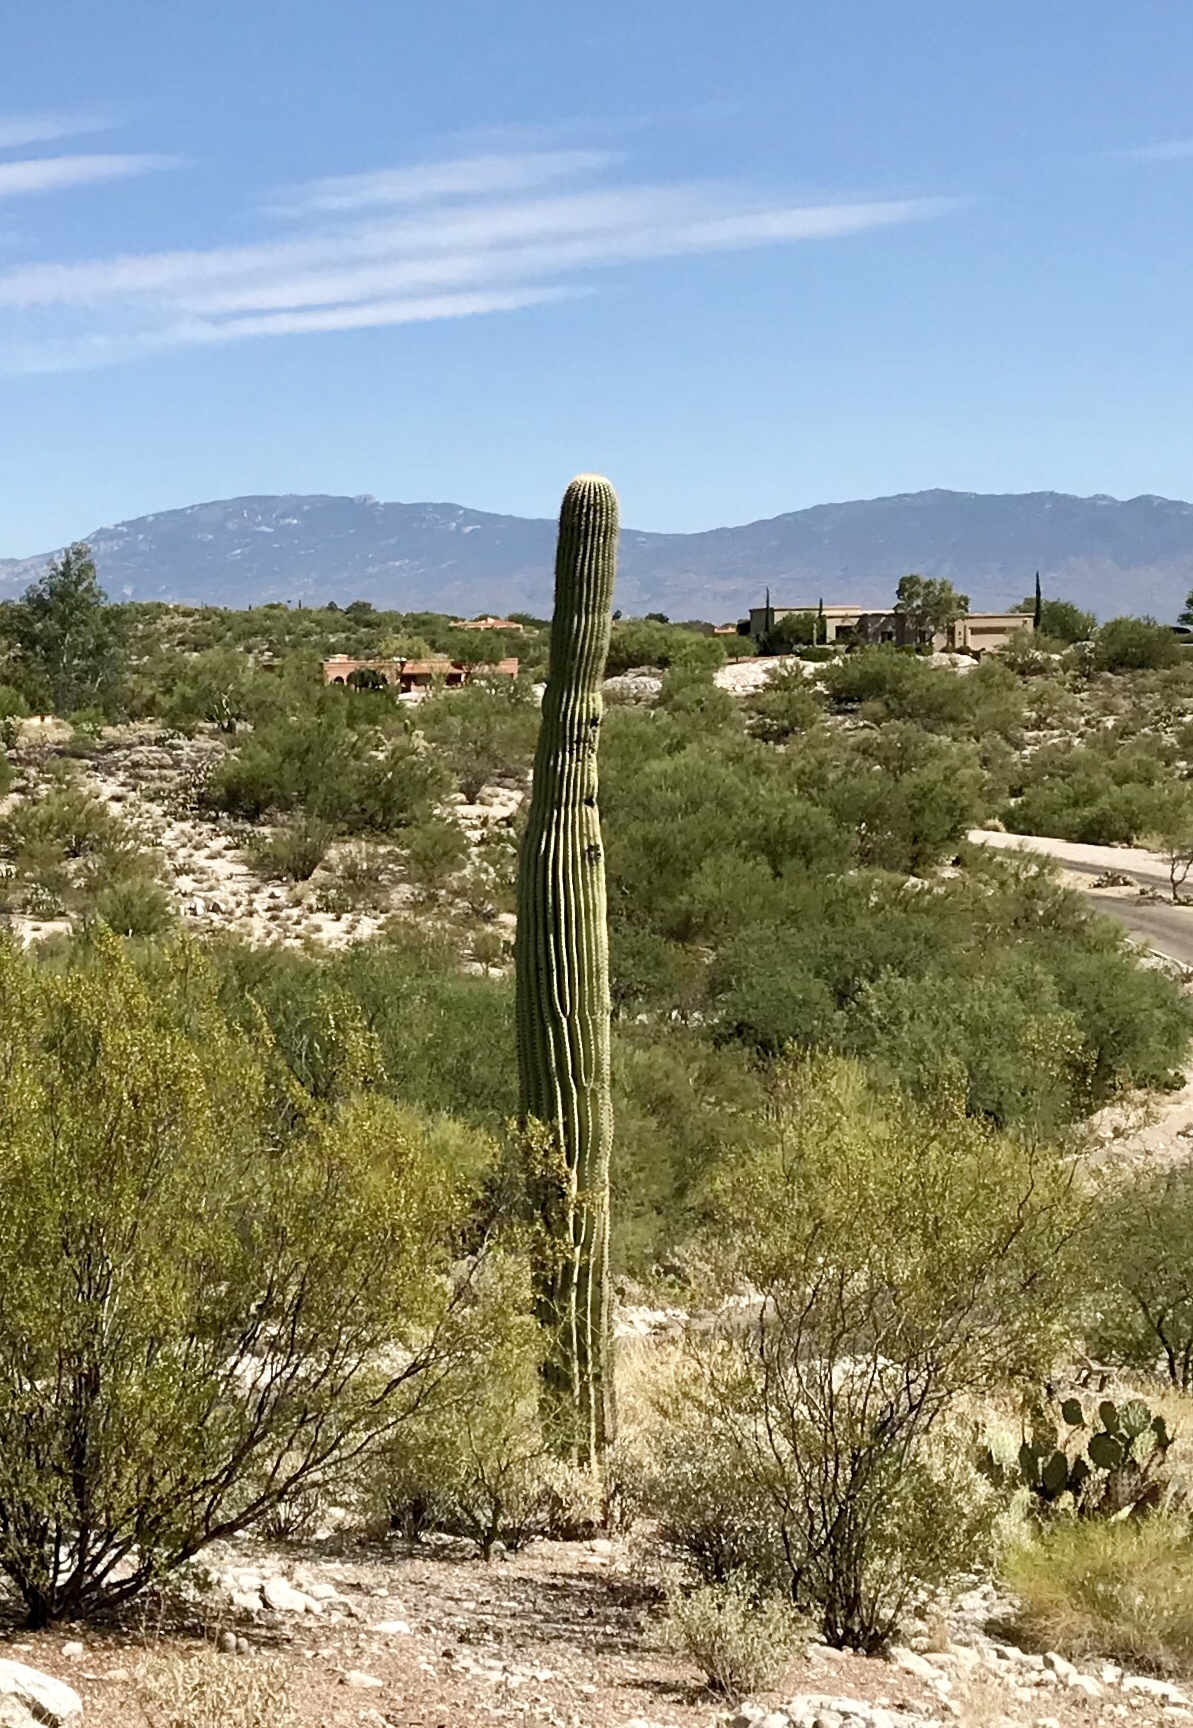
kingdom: Plantae
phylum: Tracheophyta
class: Magnoliopsida
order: Caryophyllales
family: Cactaceae
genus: Carnegiea
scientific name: Carnegiea gigantea
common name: Saguaro
